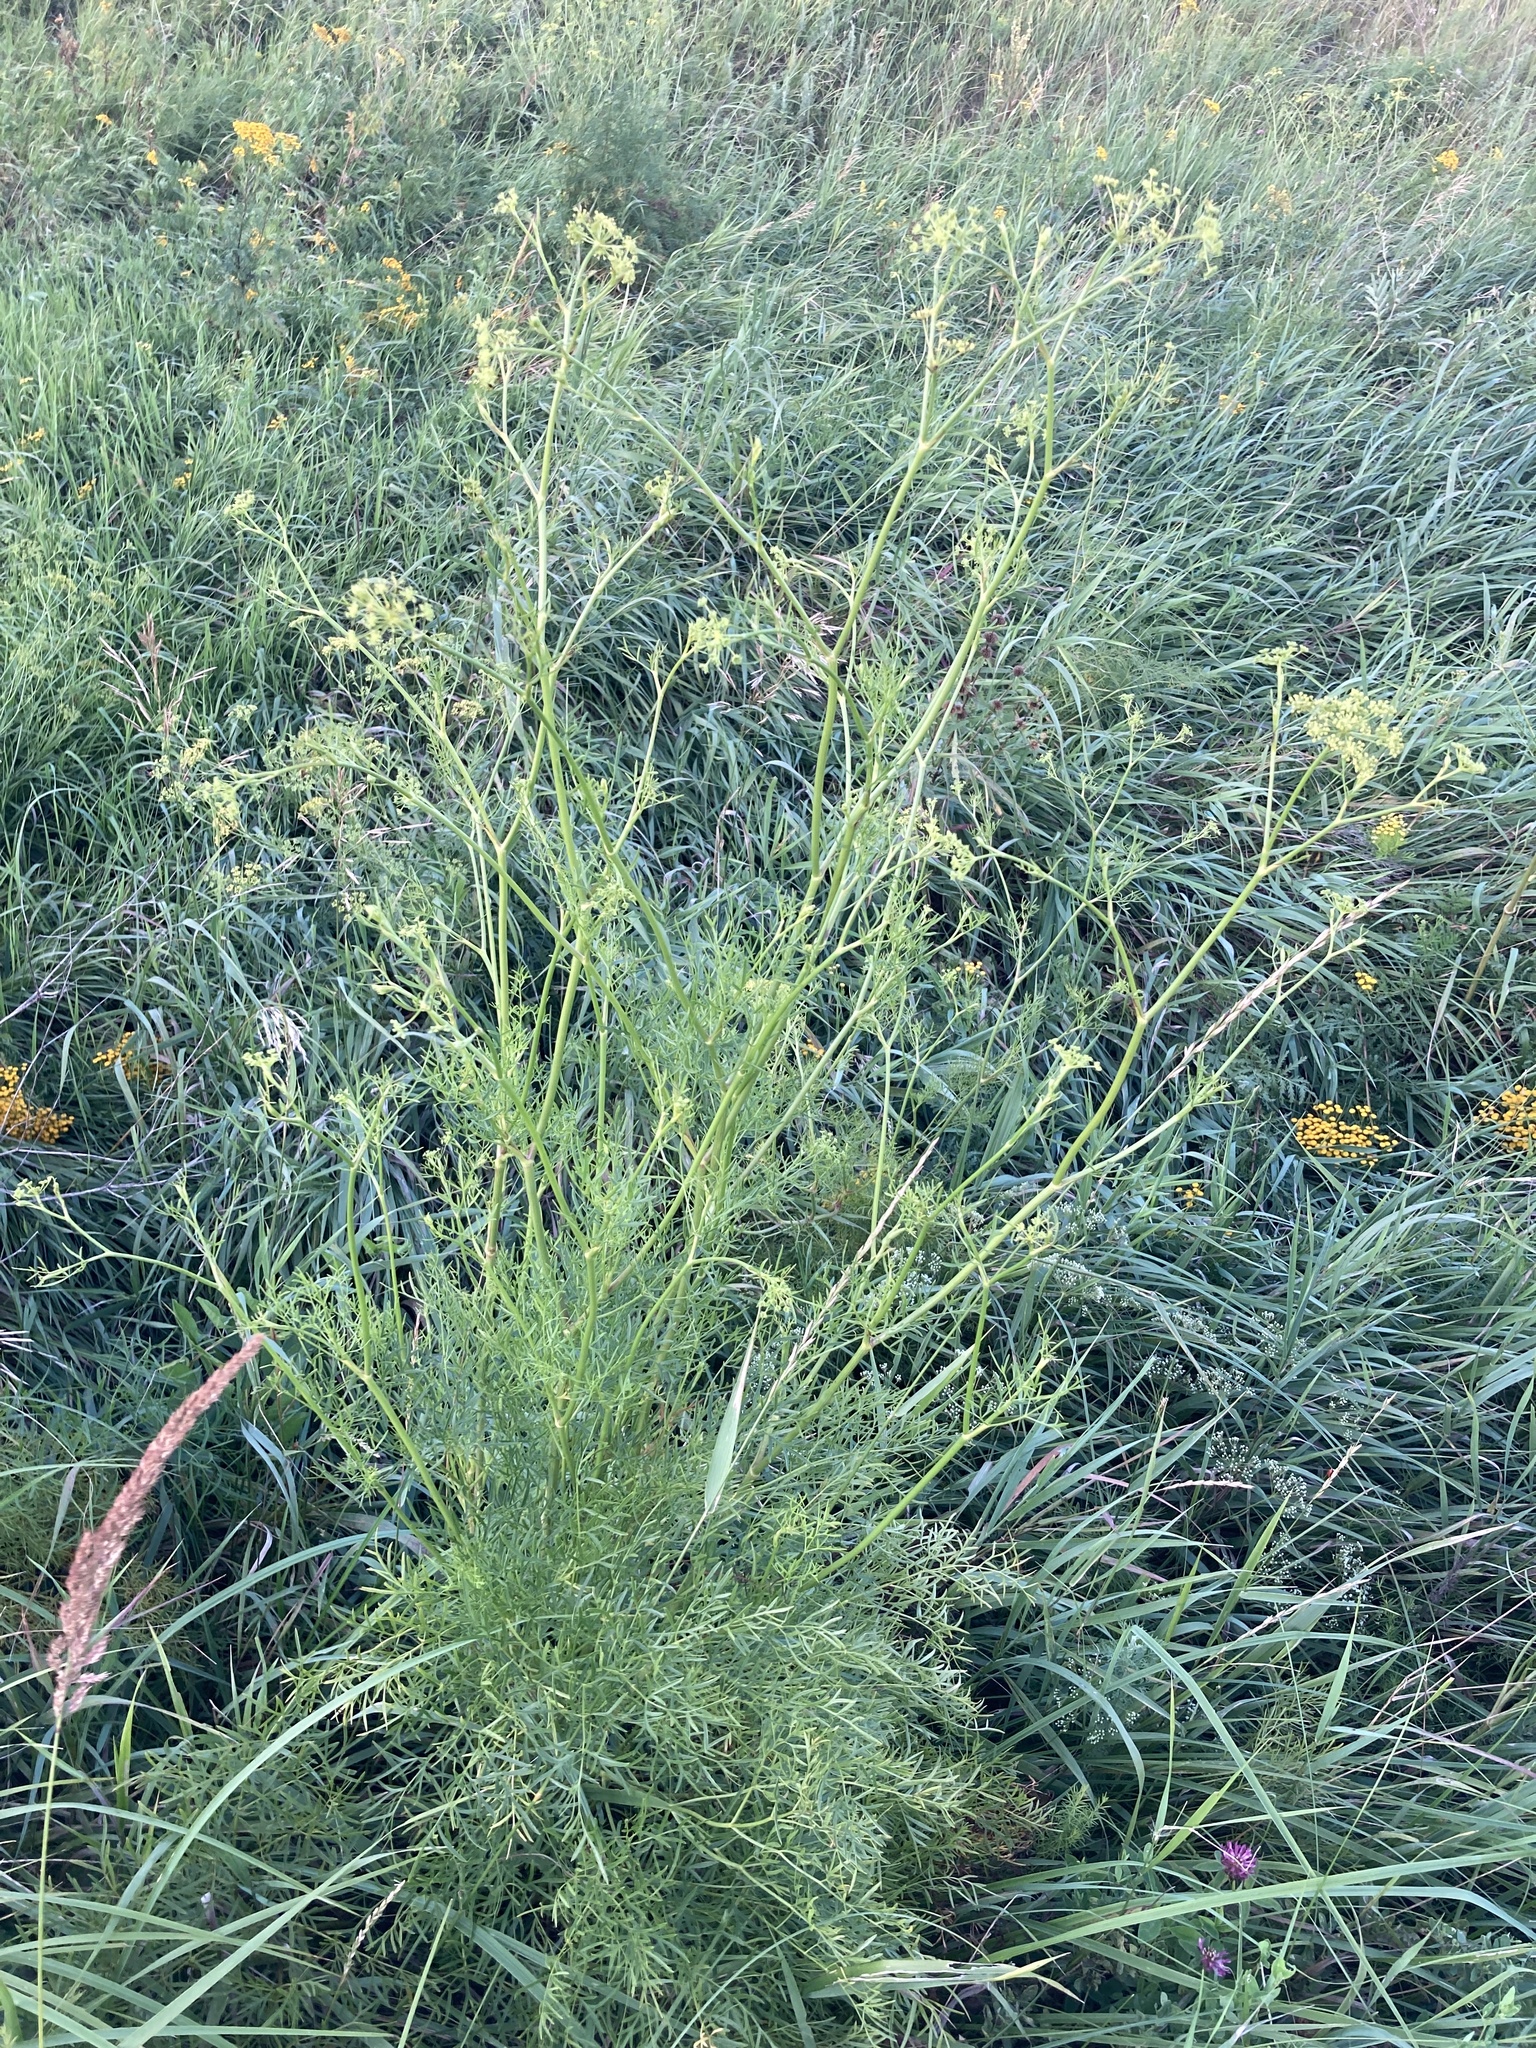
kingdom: Plantae
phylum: Tracheophyta
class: Magnoliopsida
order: Apiales
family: Apiaceae
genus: Silaum
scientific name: Silaum silaus
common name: Pepper-saxifrage
